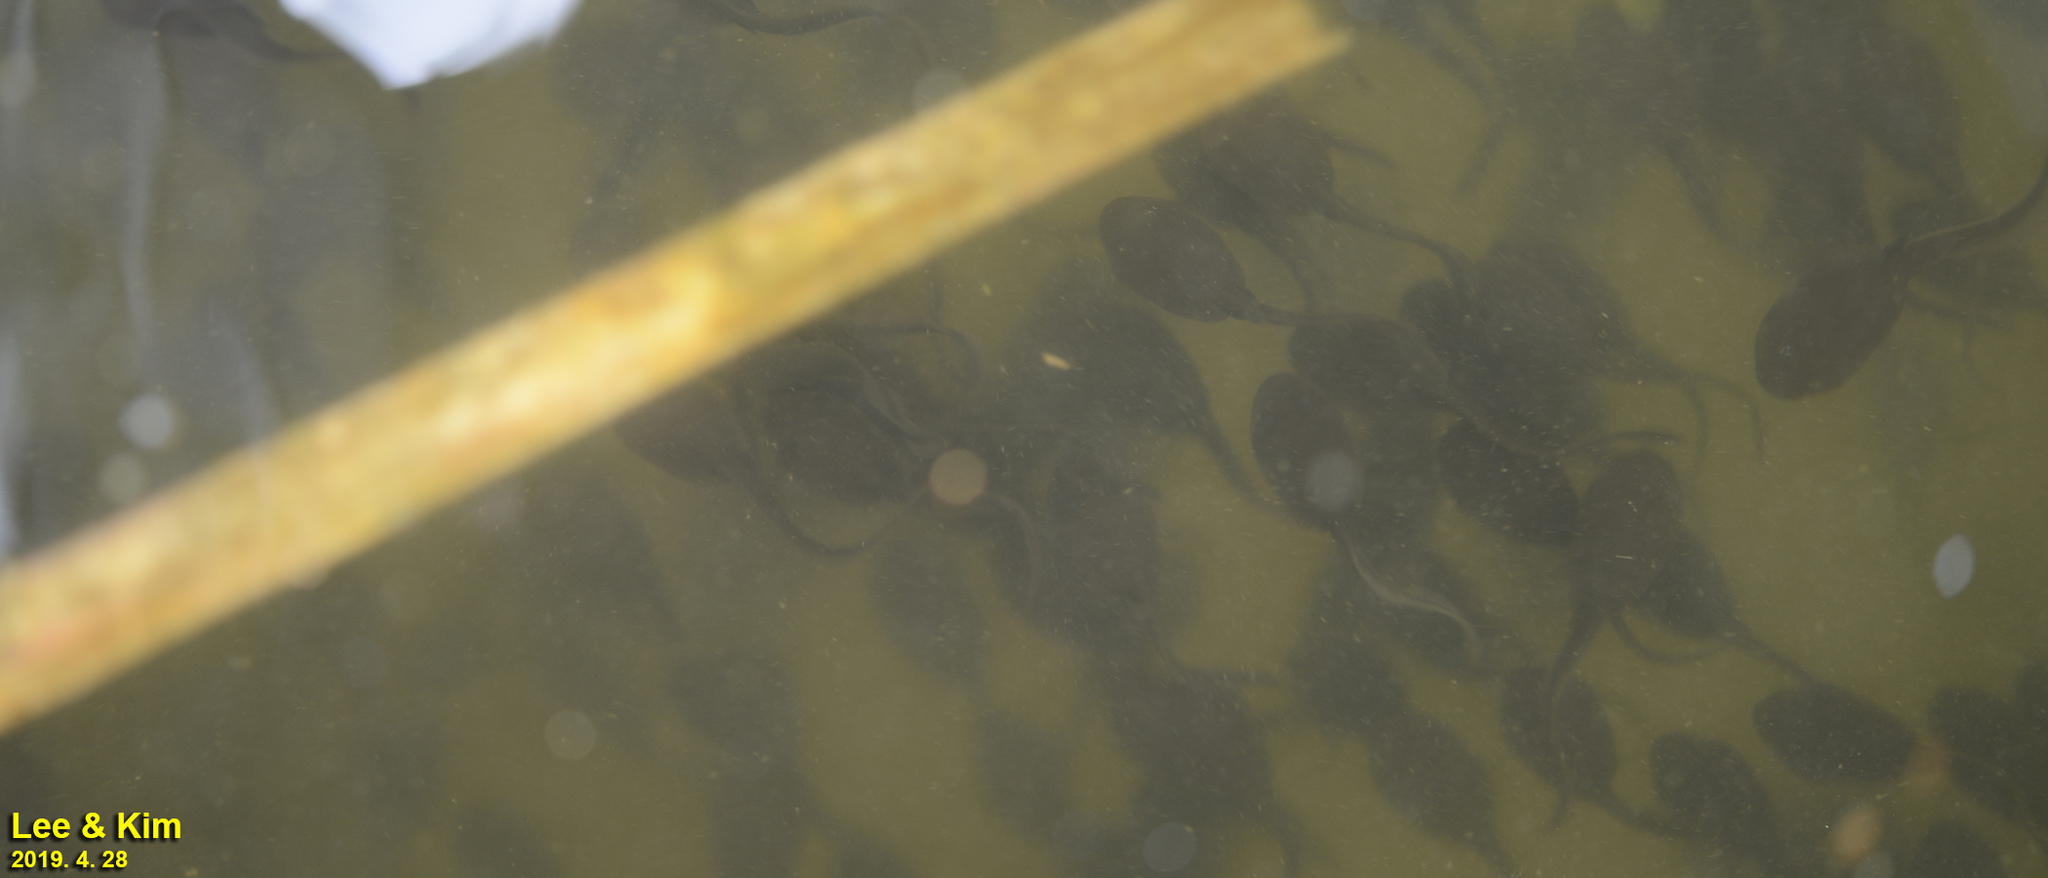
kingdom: Animalia
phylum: Chordata
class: Amphibia
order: Anura
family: Bufonidae
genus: Bufo
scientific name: Bufo gargarizans
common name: Asiatic toad
